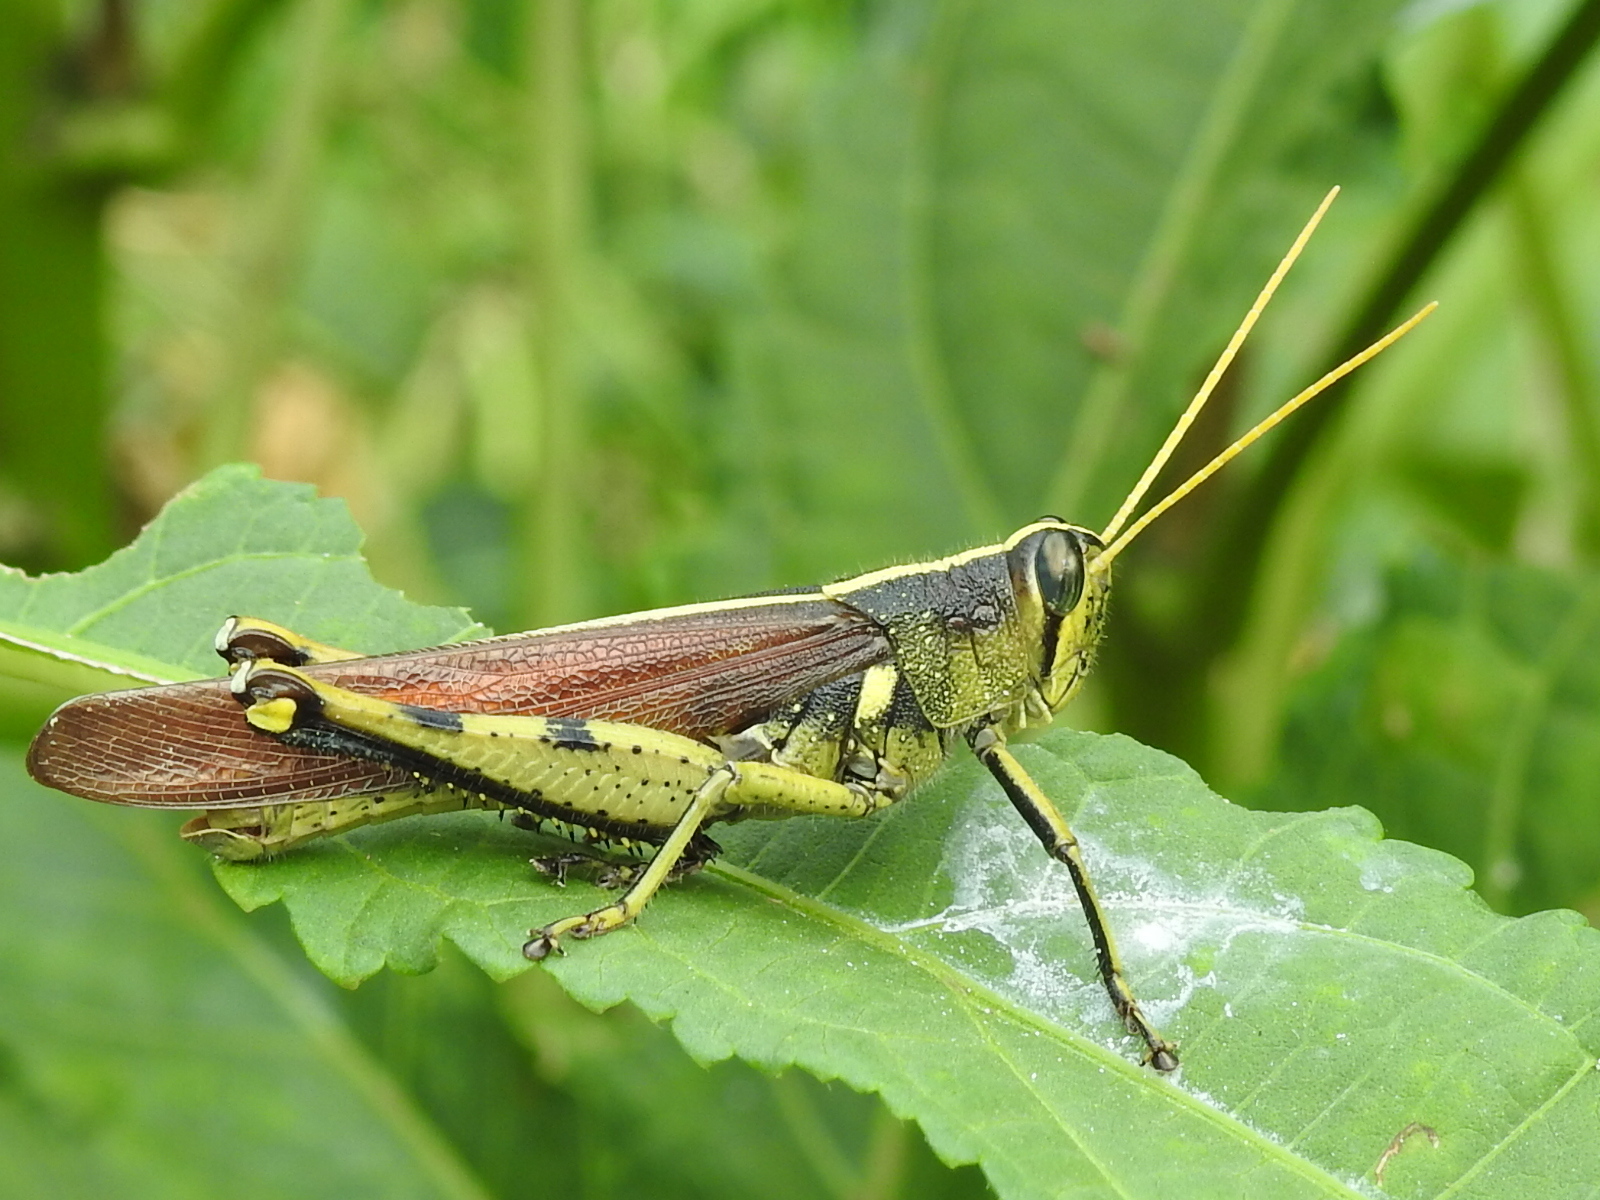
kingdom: Animalia
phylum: Arthropoda
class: Insecta
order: Orthoptera
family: Acrididae
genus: Schistocerca
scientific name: Schistocerca obscura
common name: Obscure bird grasshopper
